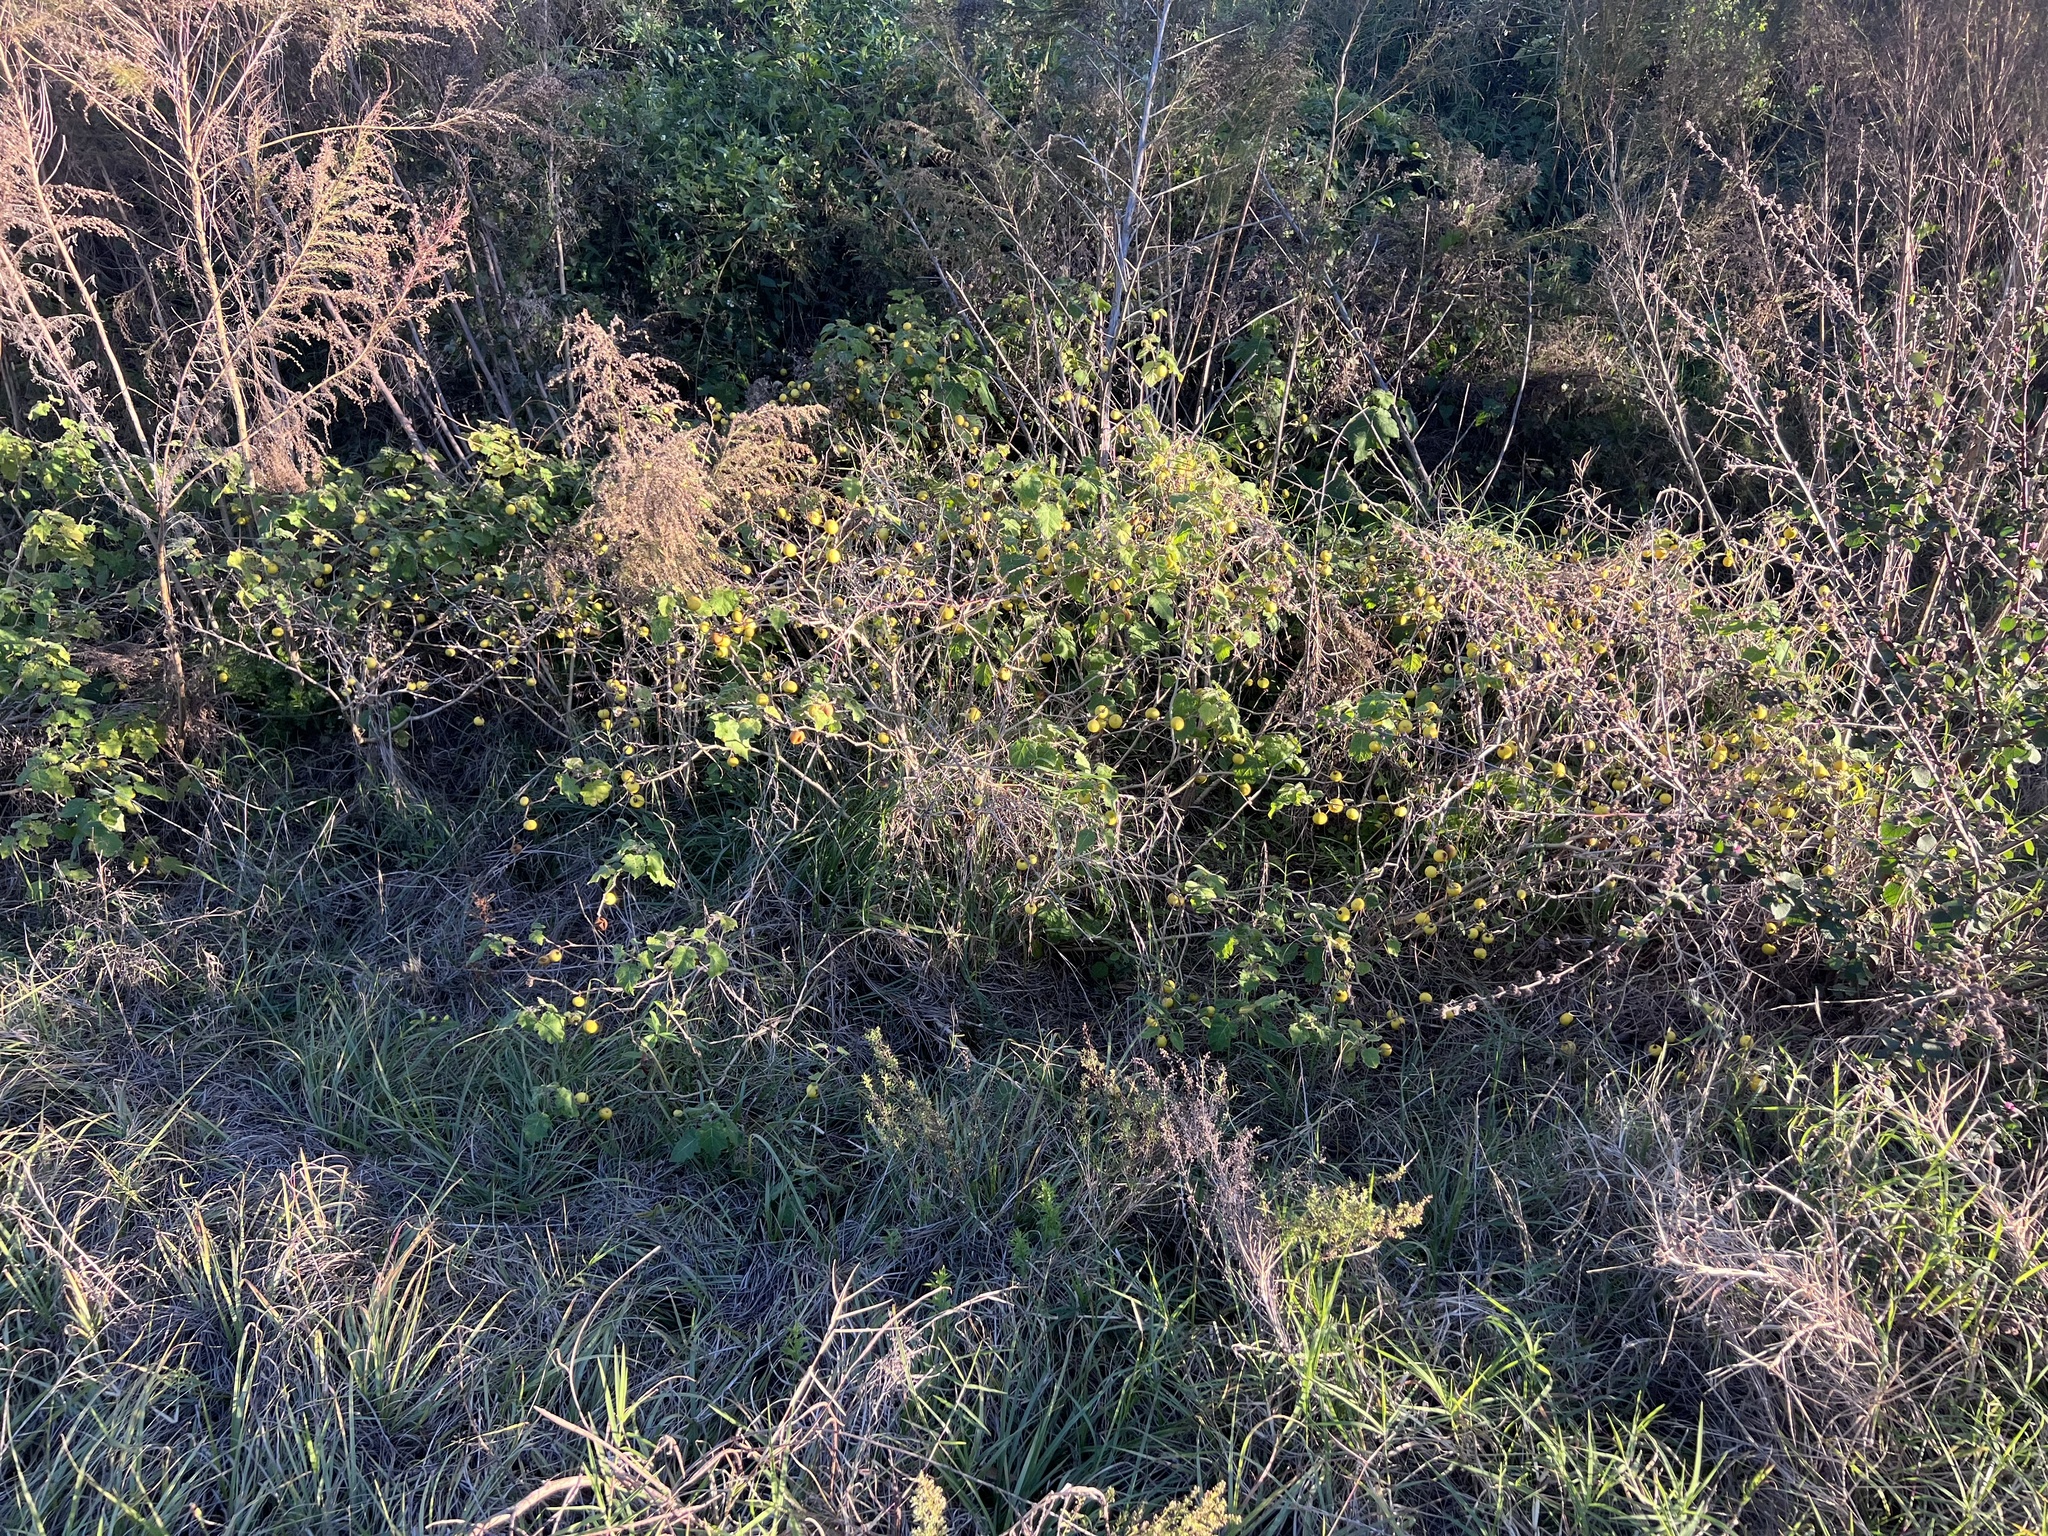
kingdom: Plantae
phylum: Tracheophyta
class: Magnoliopsida
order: Solanales
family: Solanaceae
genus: Solanum
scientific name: Solanum viarum
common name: Tropical soda apple
